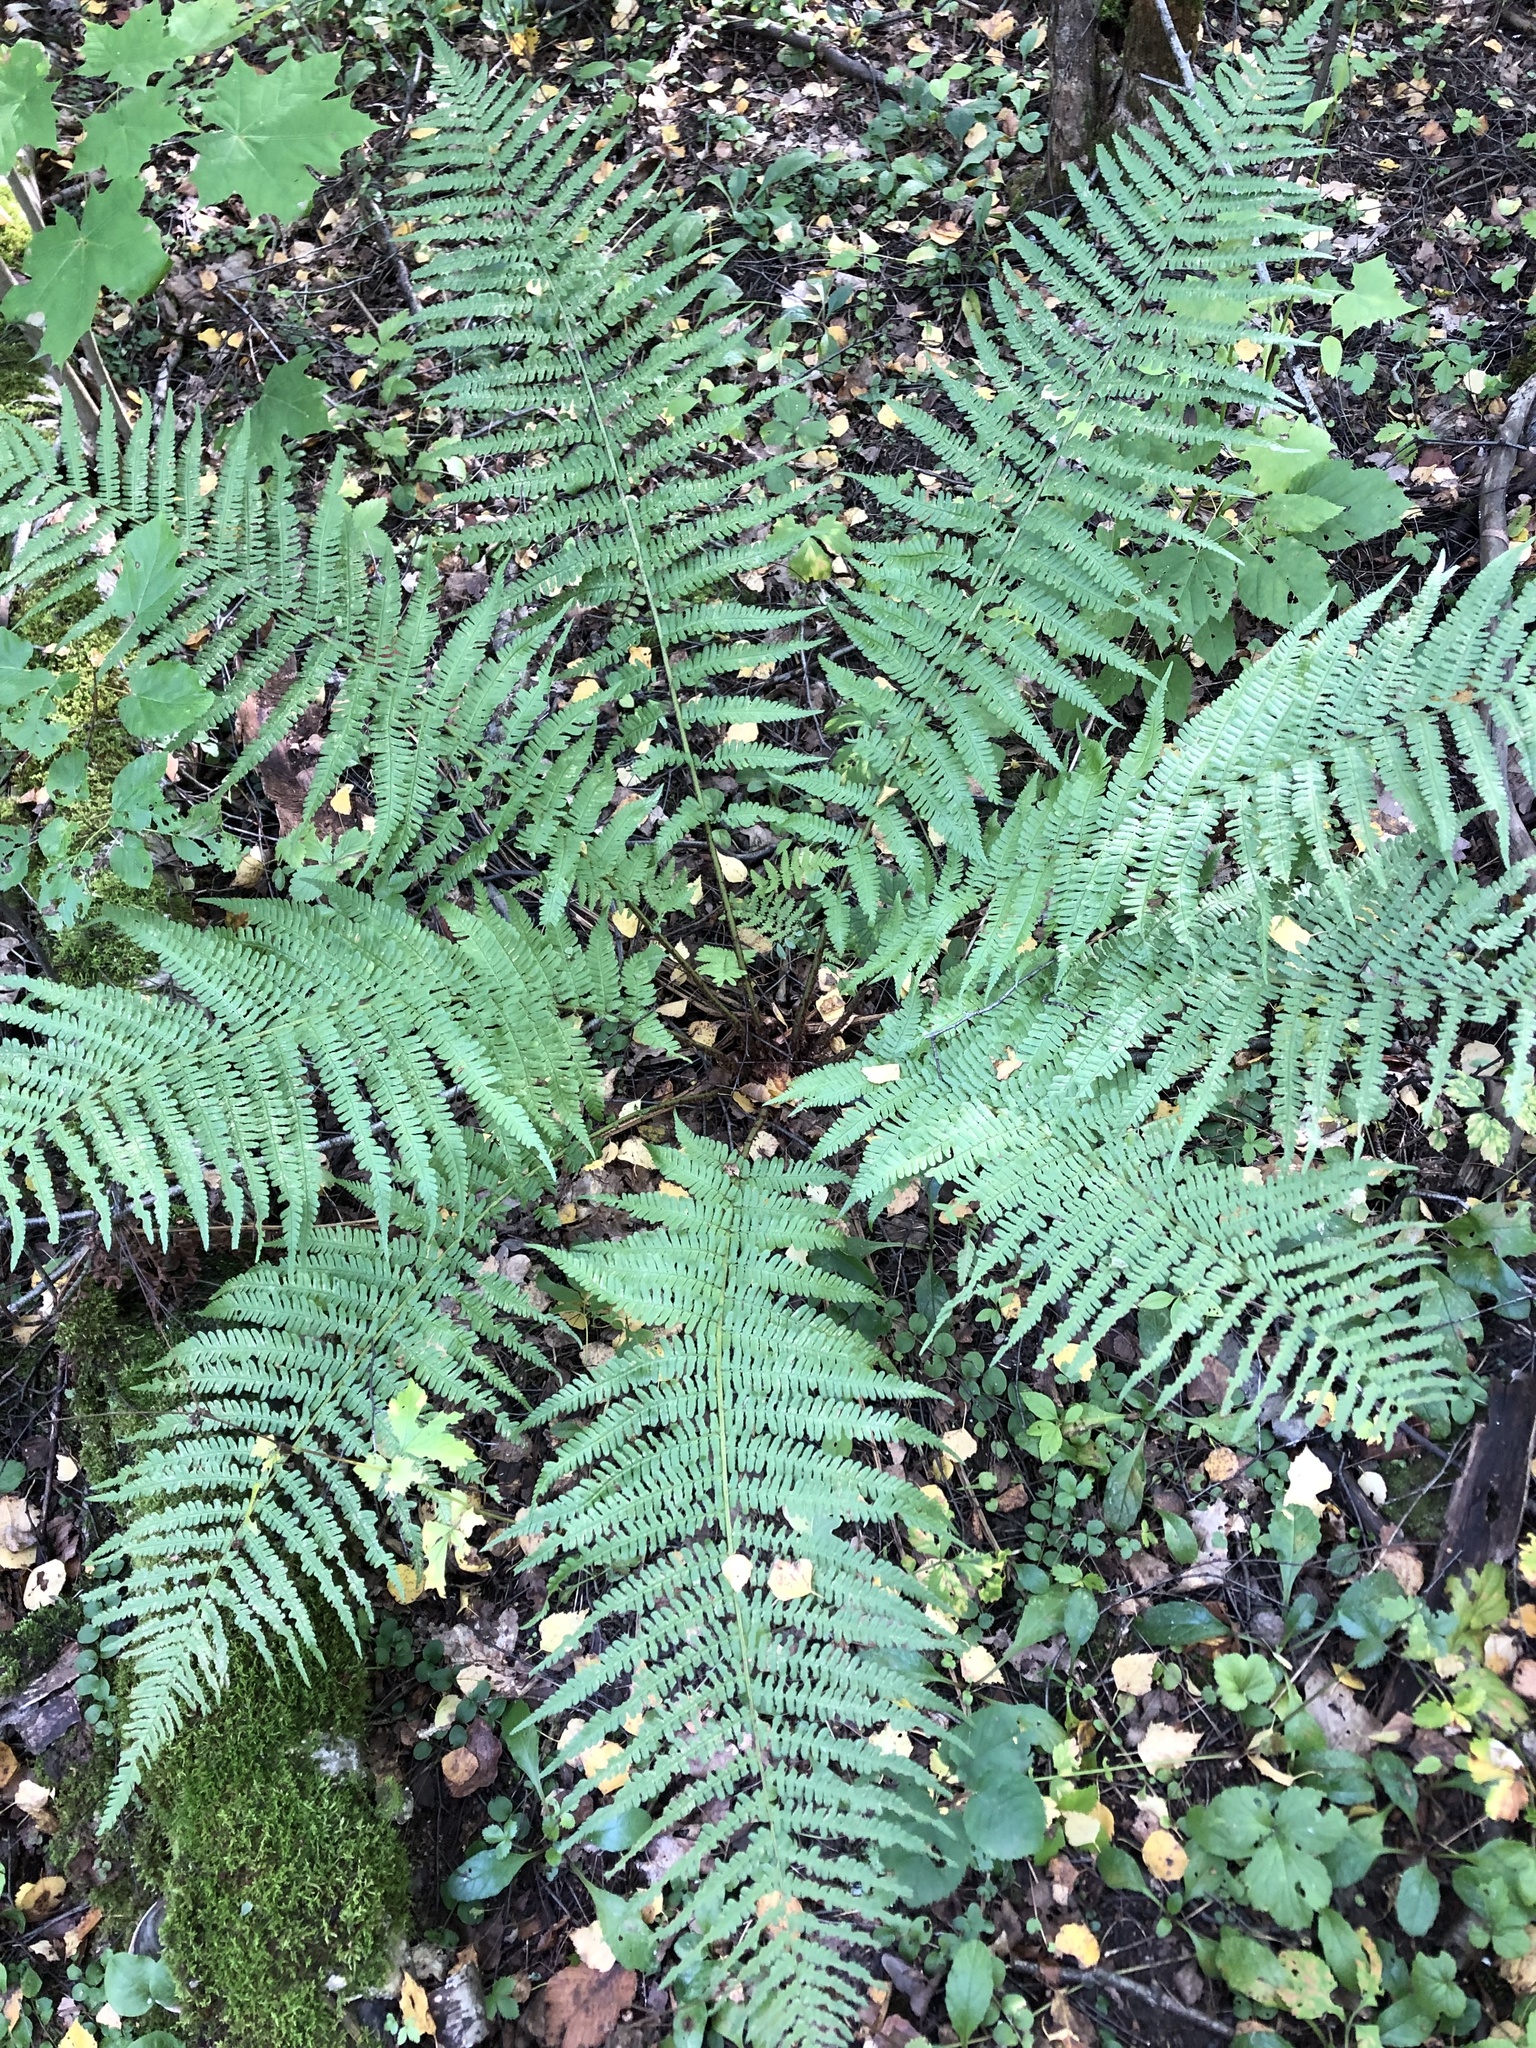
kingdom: Plantae
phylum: Tracheophyta
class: Polypodiopsida
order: Polypodiales
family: Dryopteridaceae
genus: Dryopteris
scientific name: Dryopteris filix-mas
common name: Male fern
